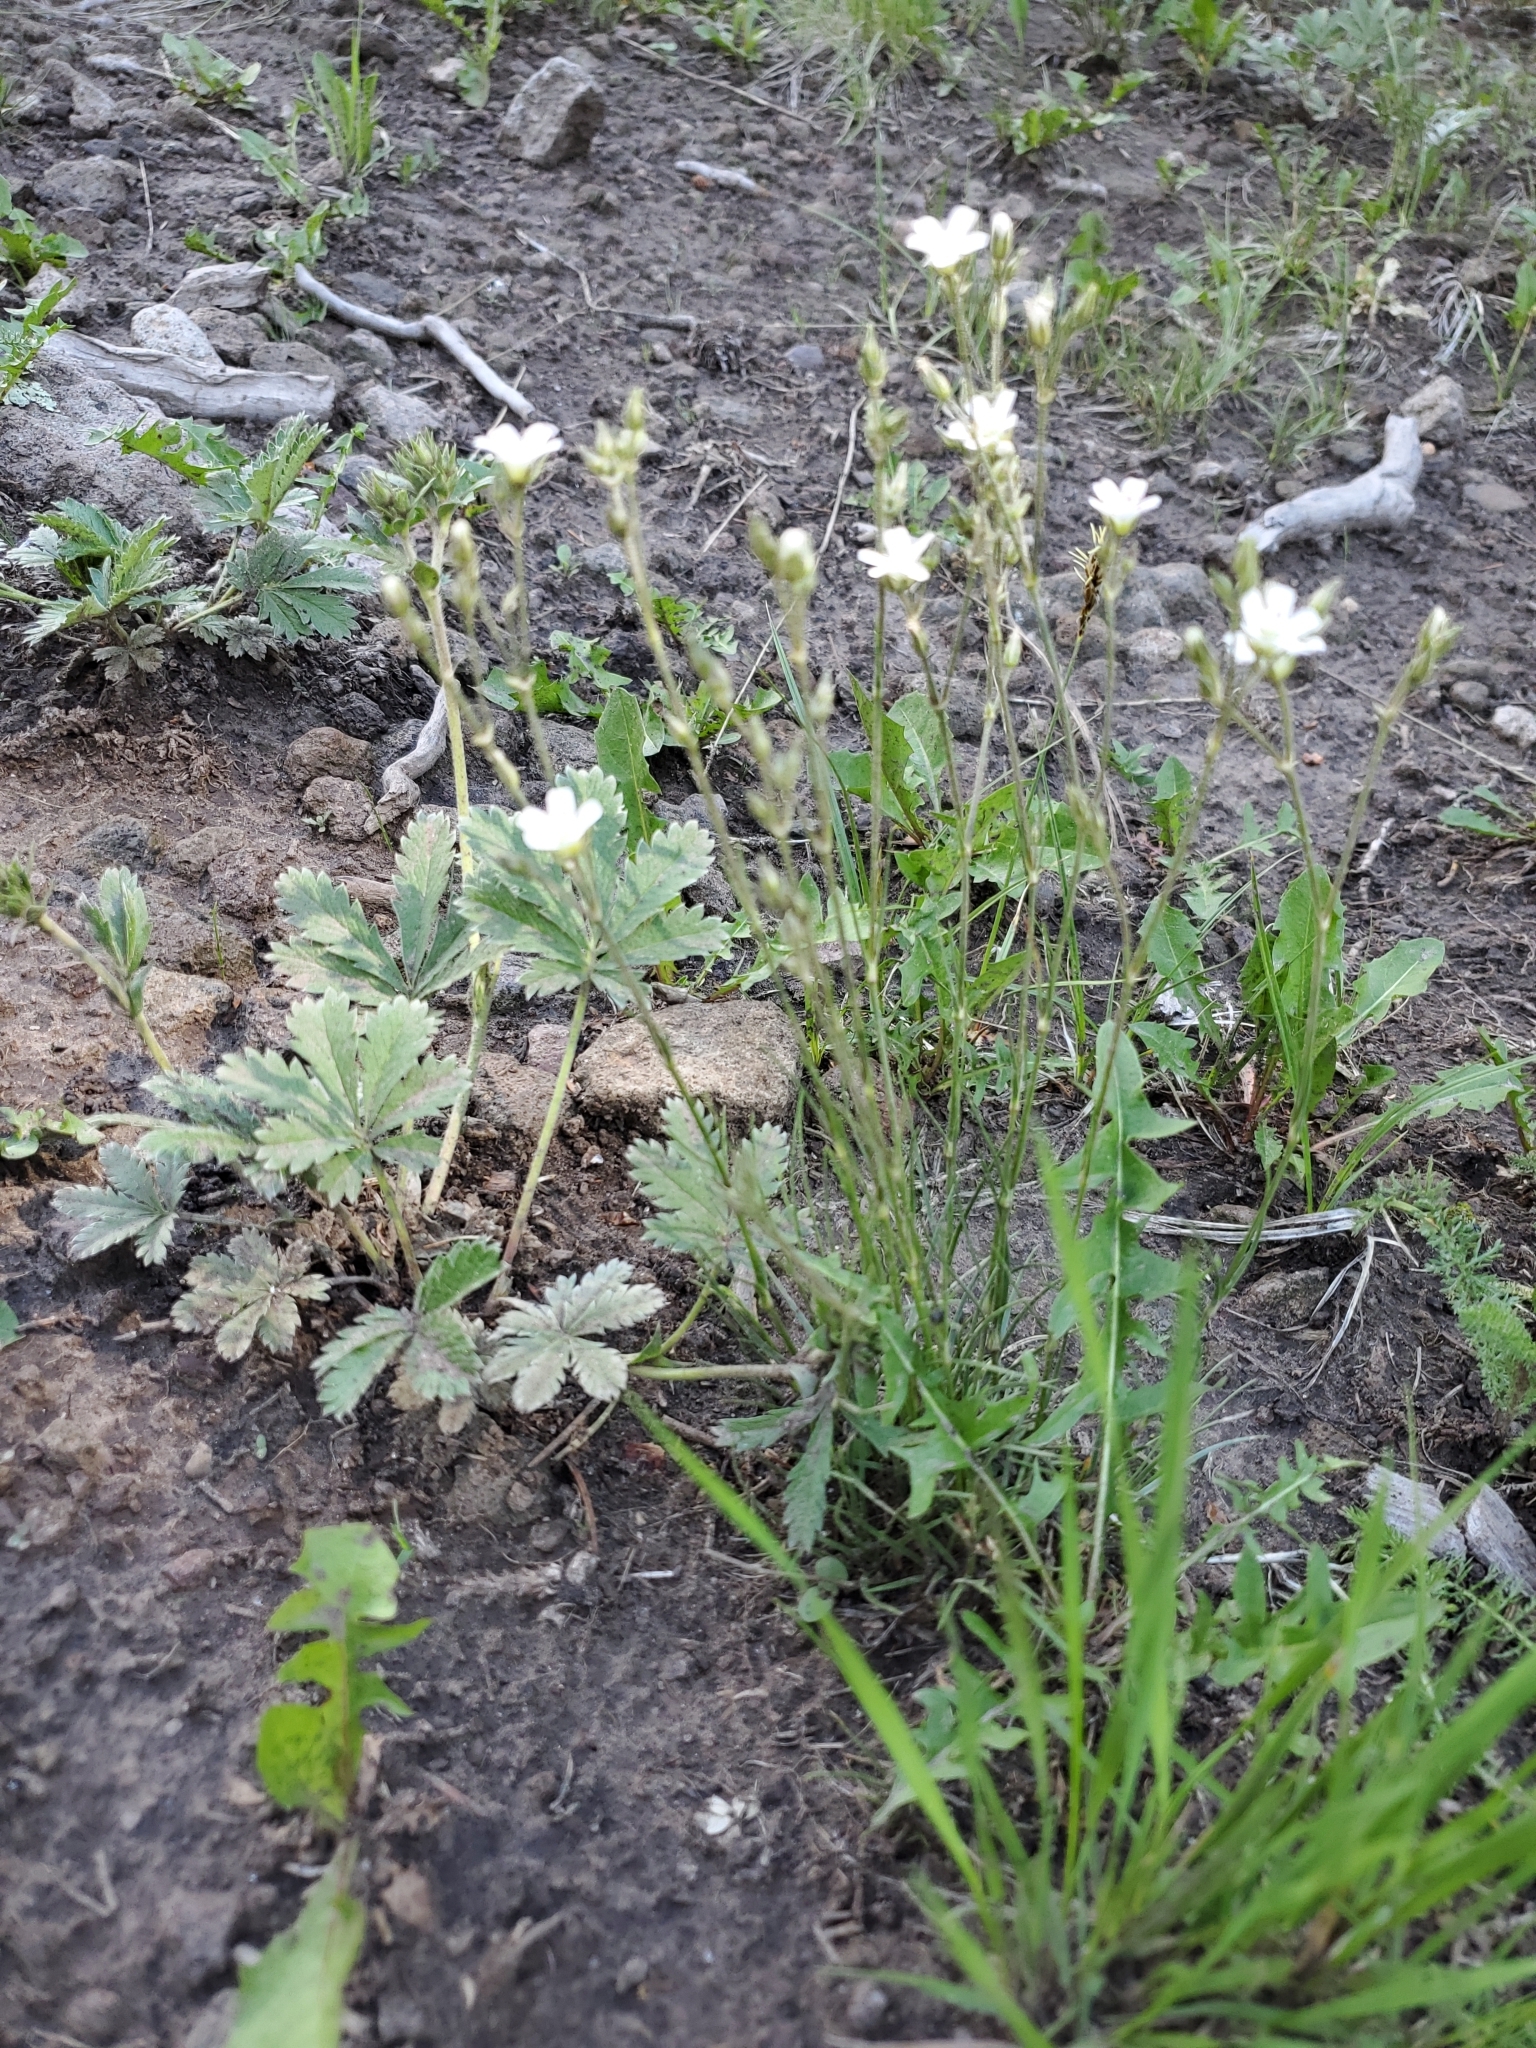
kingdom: Plantae
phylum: Tracheophyta
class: Magnoliopsida
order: Caryophyllales
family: Caryophyllaceae
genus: Eremogone
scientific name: Eremogone fendleri
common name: Fendler's sandwort
